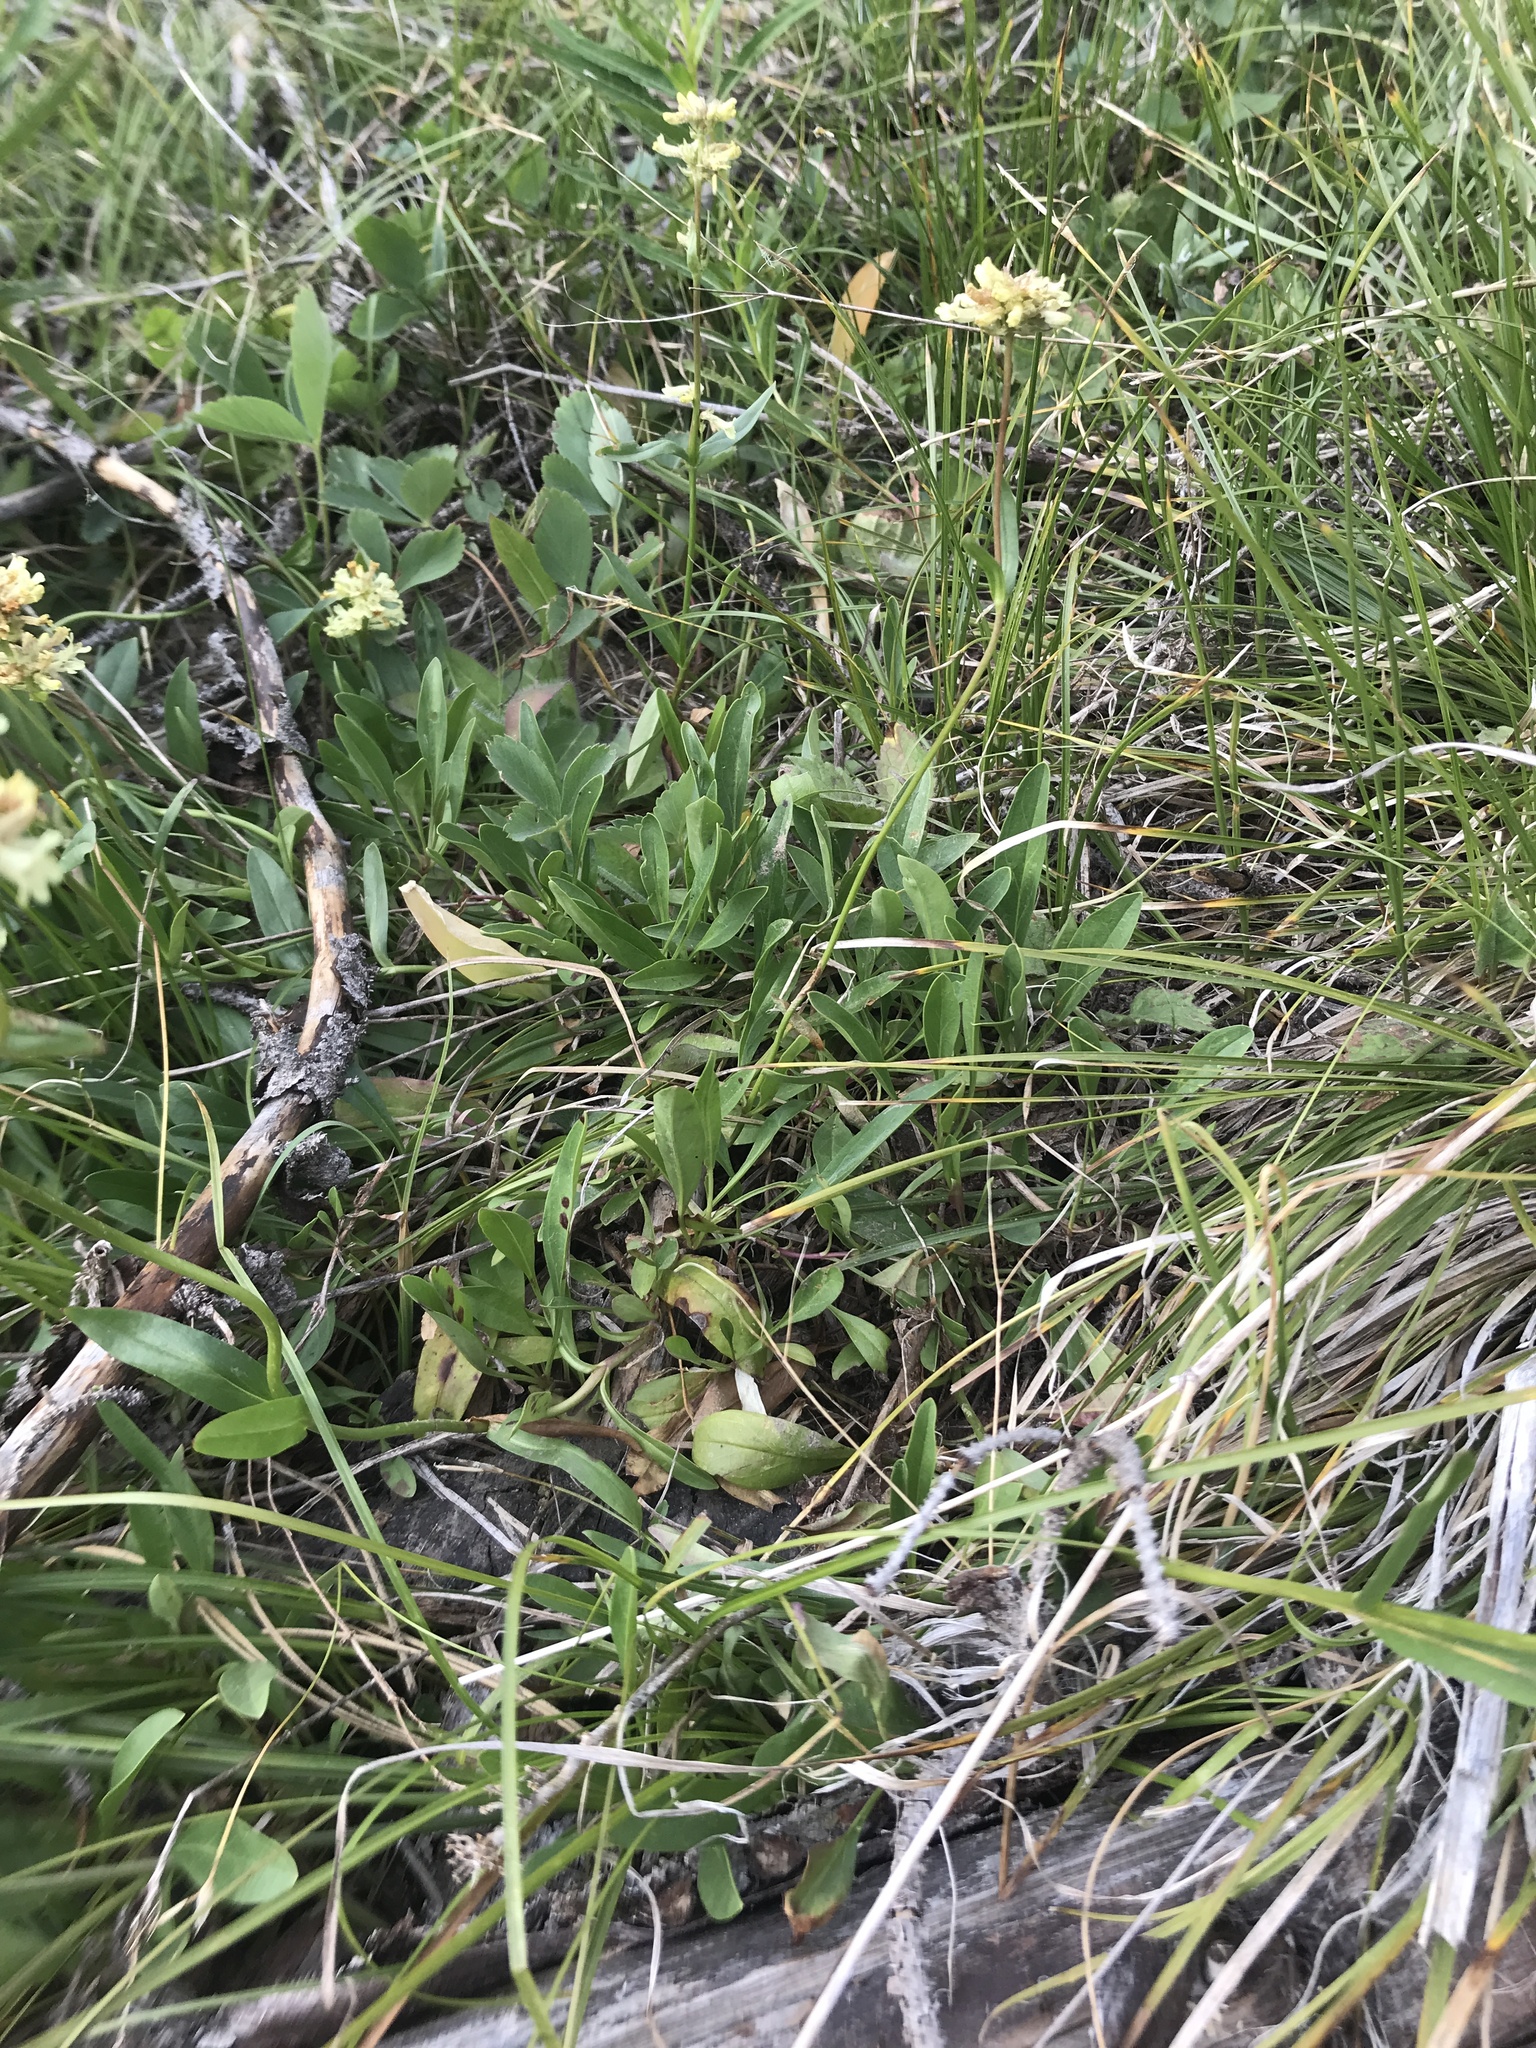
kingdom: Plantae
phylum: Tracheophyta
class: Magnoliopsida
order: Lamiales
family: Plantaginaceae
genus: Penstemon
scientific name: Penstemon confertus
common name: Lesser yellow beardtongue
